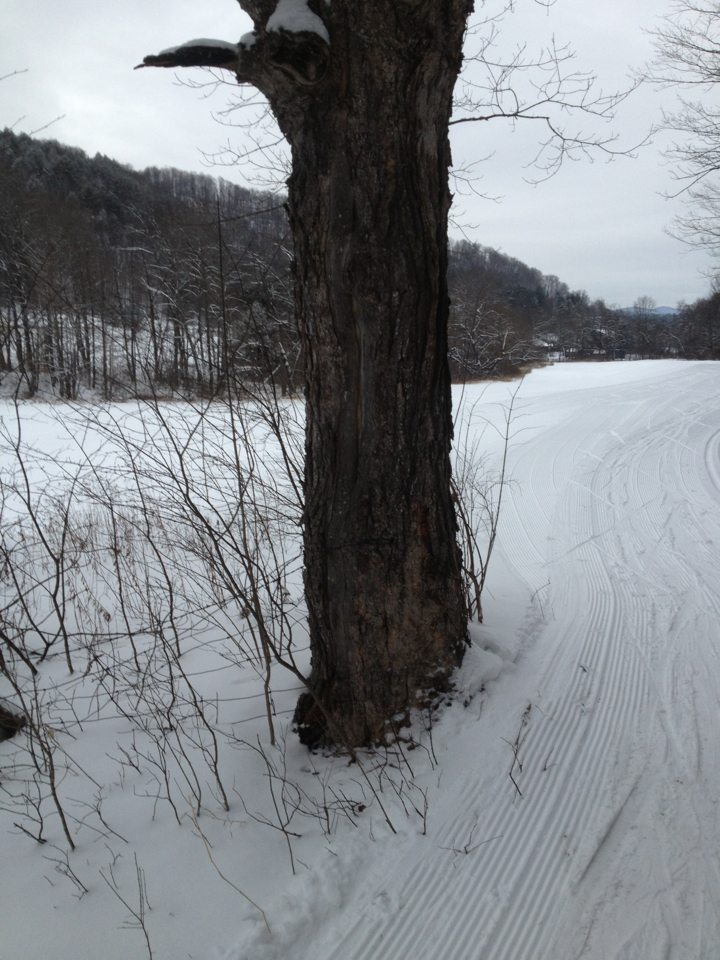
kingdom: Plantae
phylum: Tracheophyta
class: Magnoliopsida
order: Sapindales
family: Sapindaceae
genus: Acer
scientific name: Acer saccharum
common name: Sugar maple
